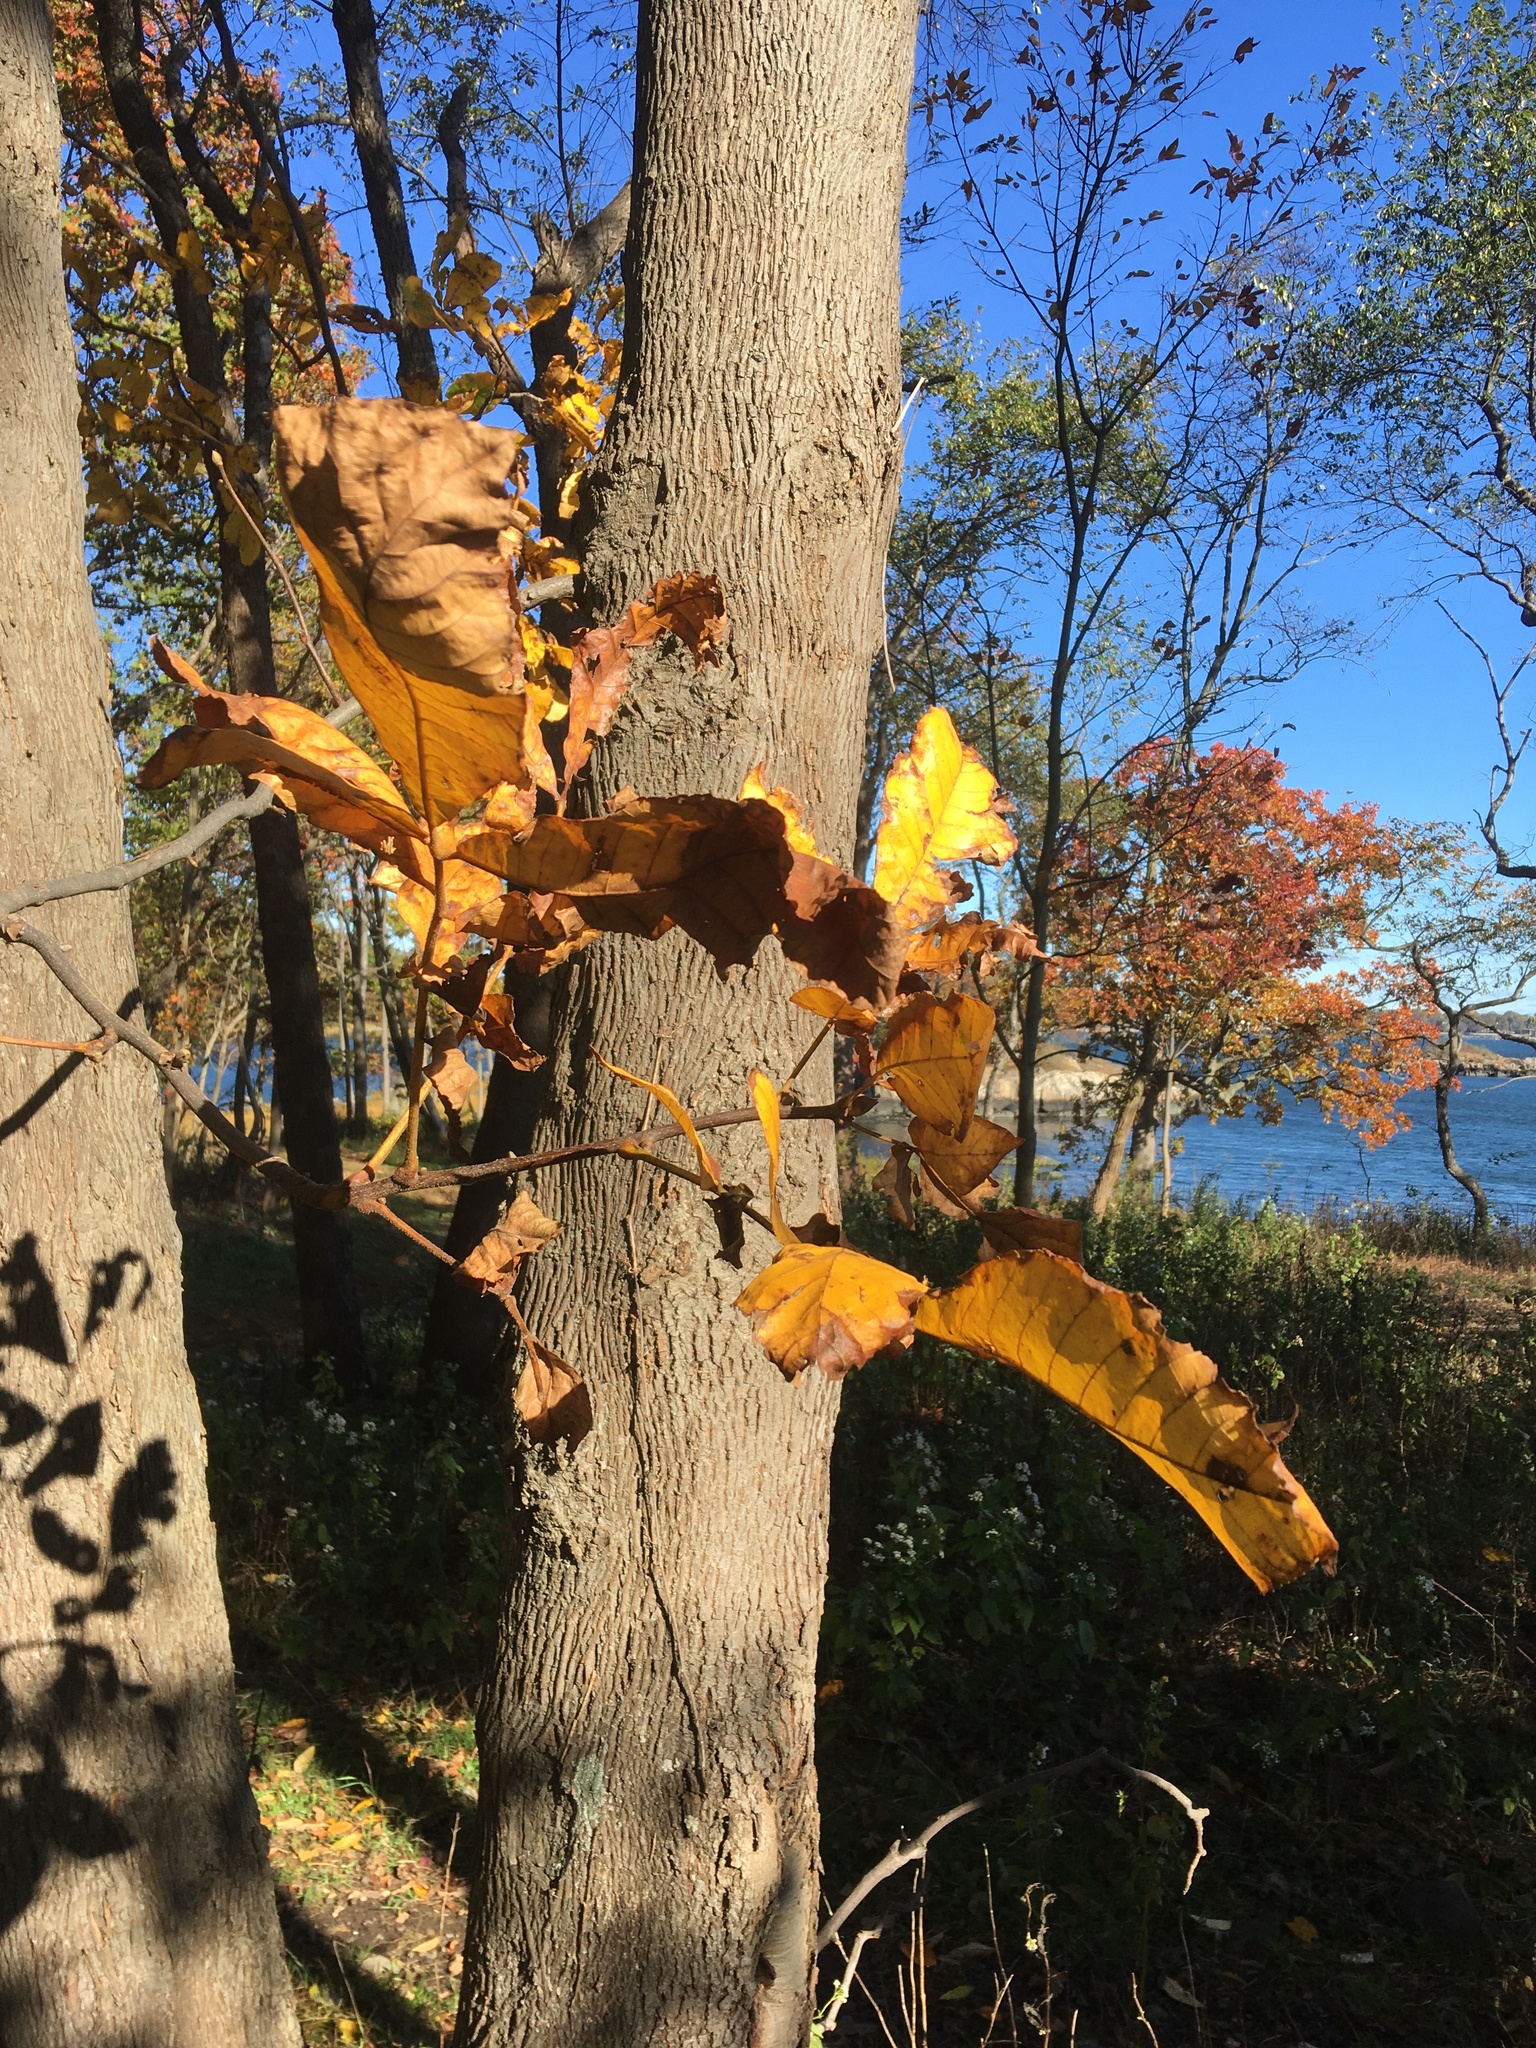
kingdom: Plantae
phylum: Tracheophyta
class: Magnoliopsida
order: Fagales
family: Juglandaceae
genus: Carya
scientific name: Carya alba
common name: Mockernut hickory
